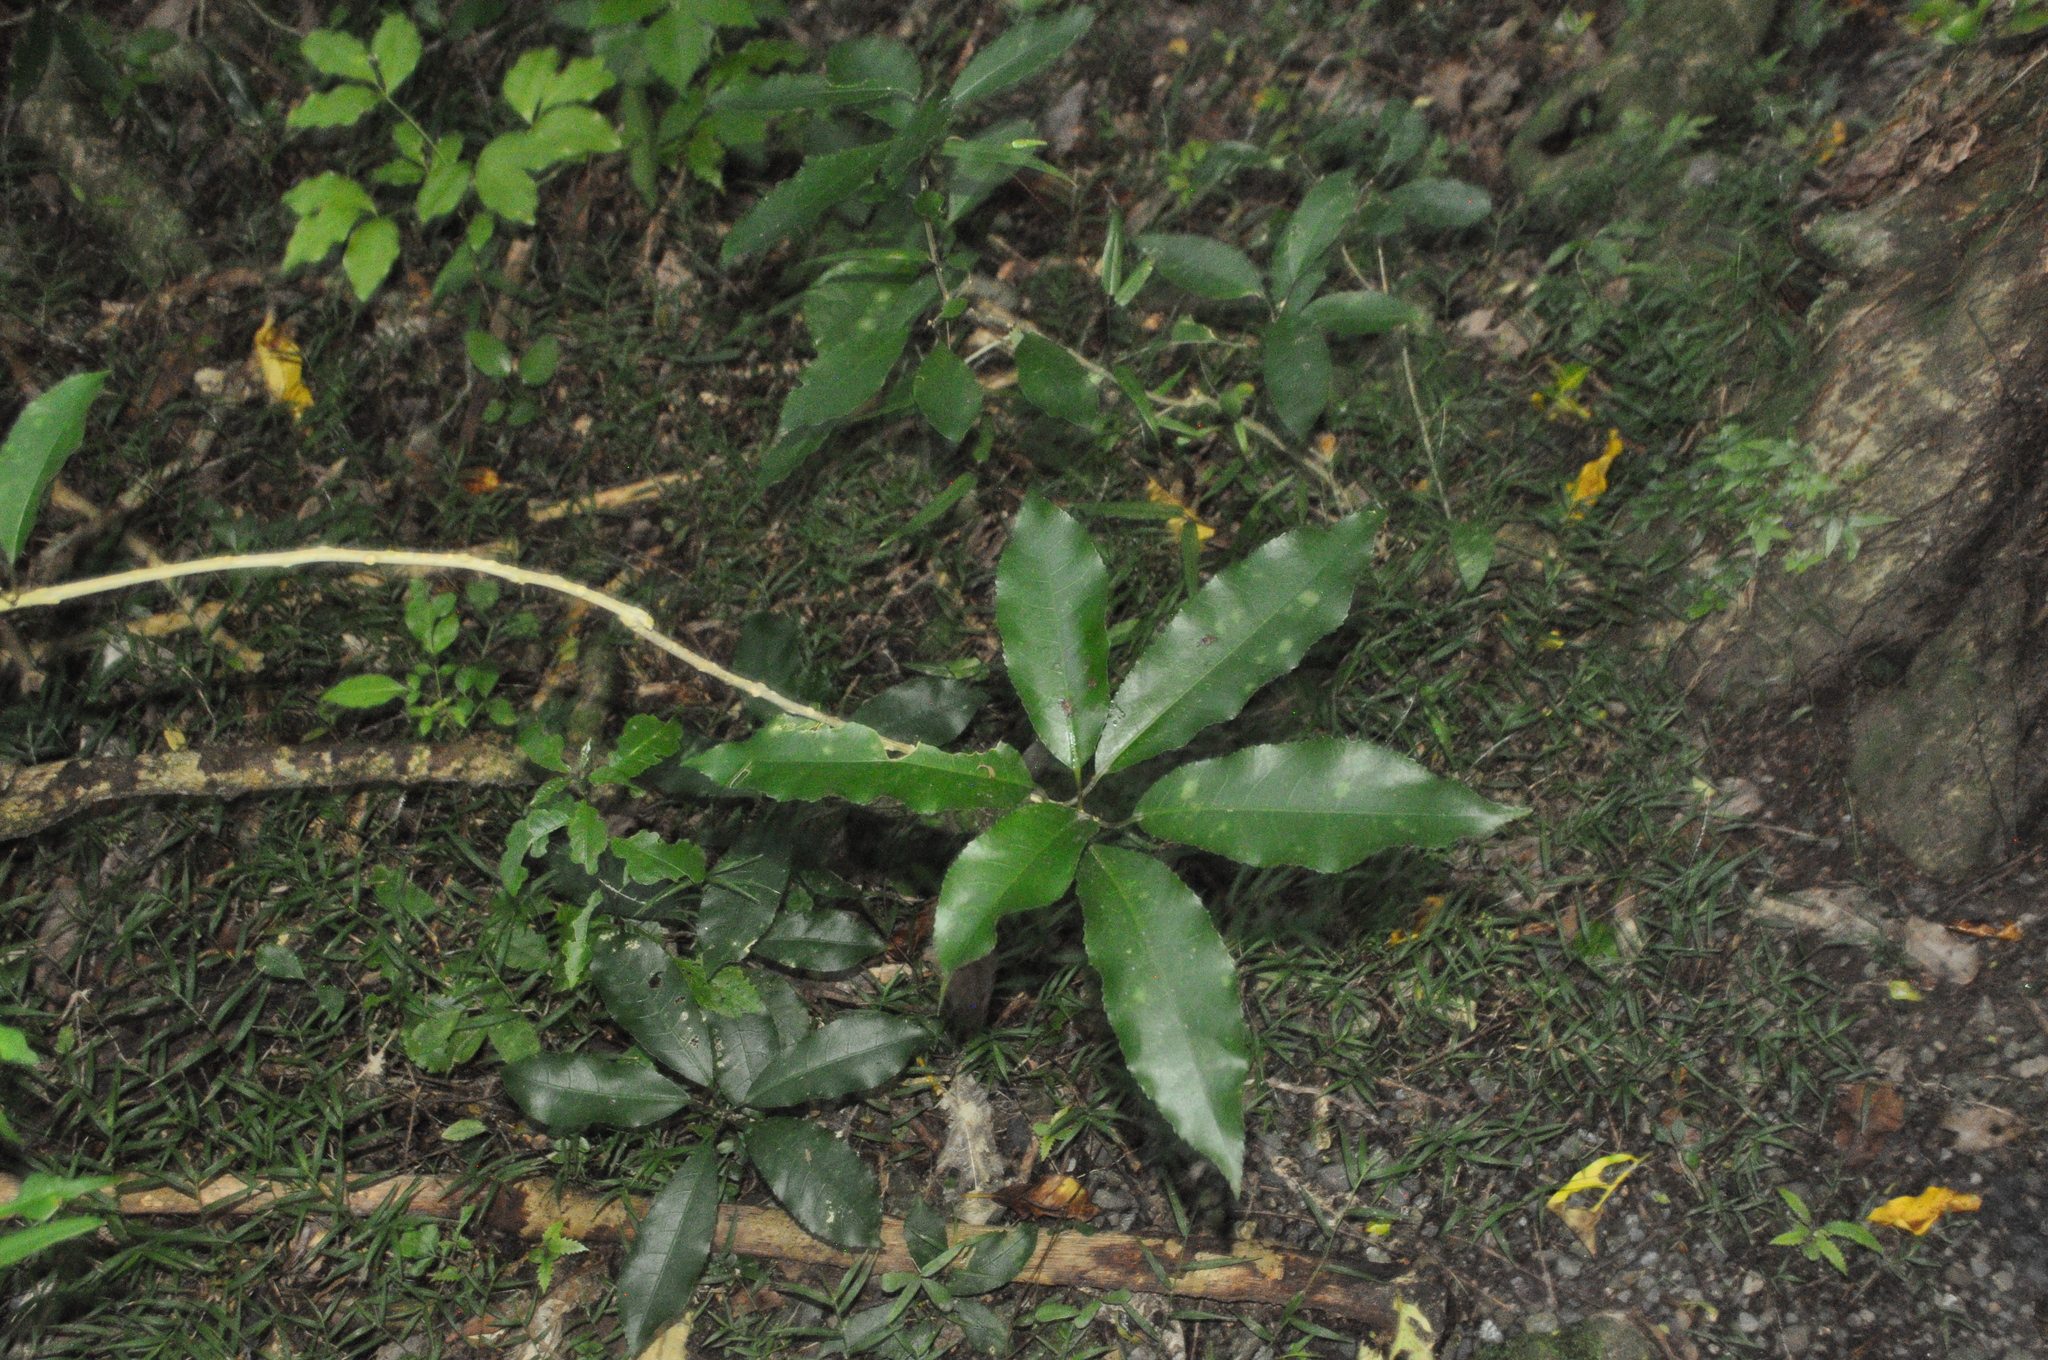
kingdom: Plantae
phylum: Tracheophyta
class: Magnoliopsida
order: Malpighiales
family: Violaceae
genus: Melicytus
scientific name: Melicytus ramiflorus
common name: Mahoe
